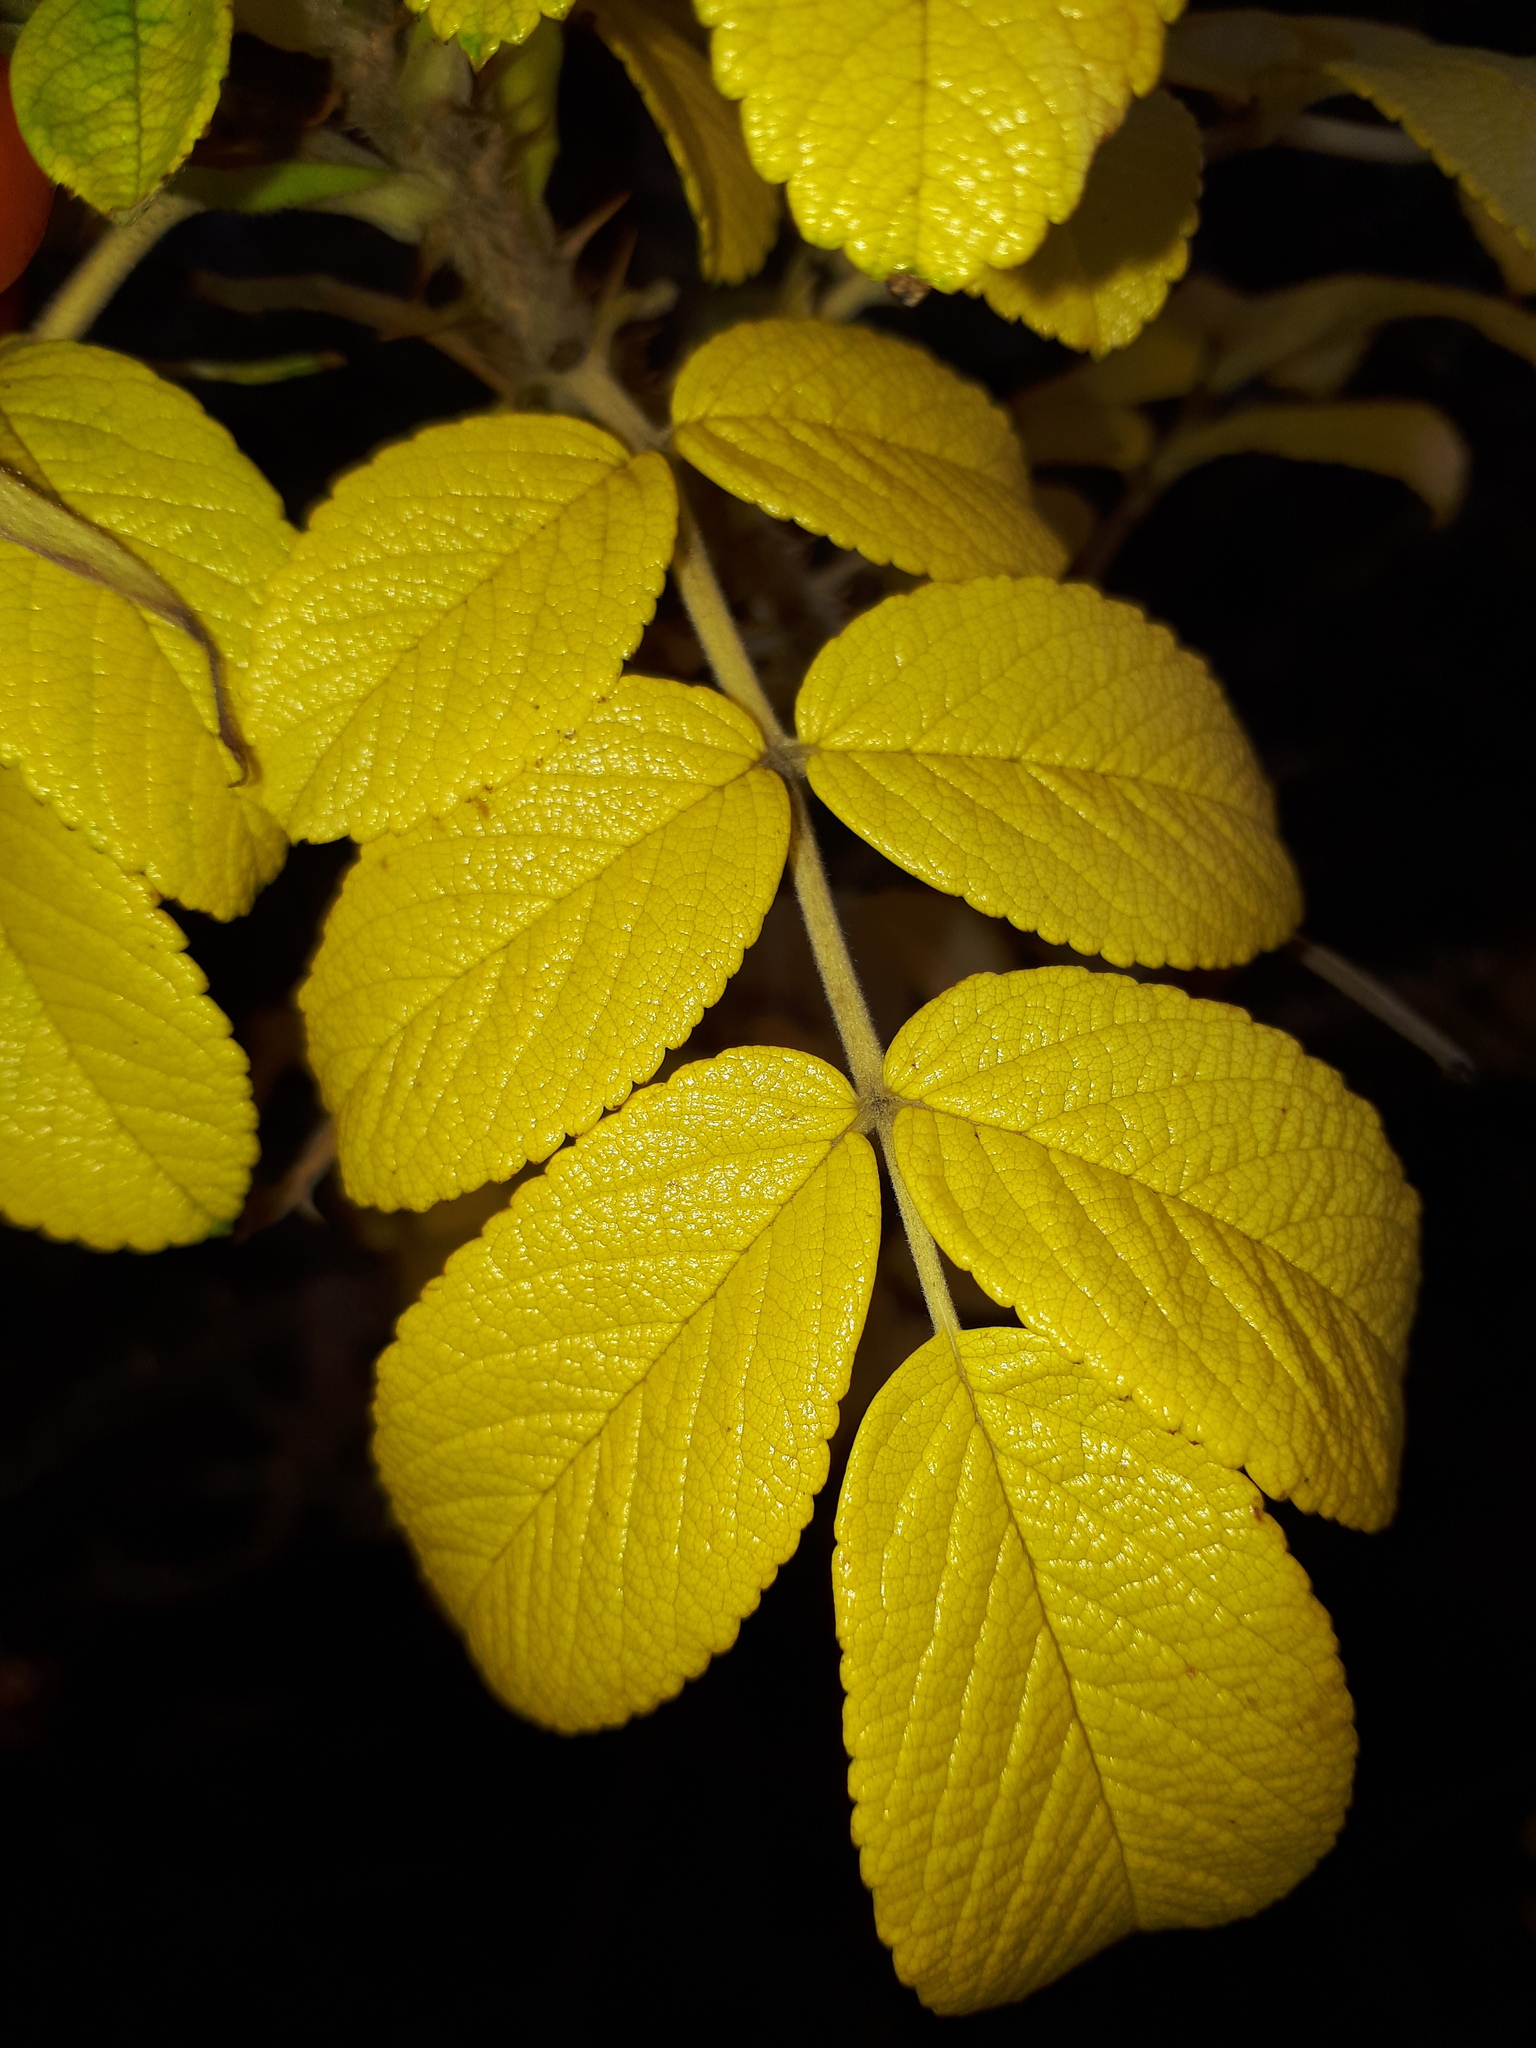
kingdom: Plantae
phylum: Tracheophyta
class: Magnoliopsida
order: Rosales
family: Rosaceae
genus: Rosa
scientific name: Rosa rugosa
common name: Japanese rose
